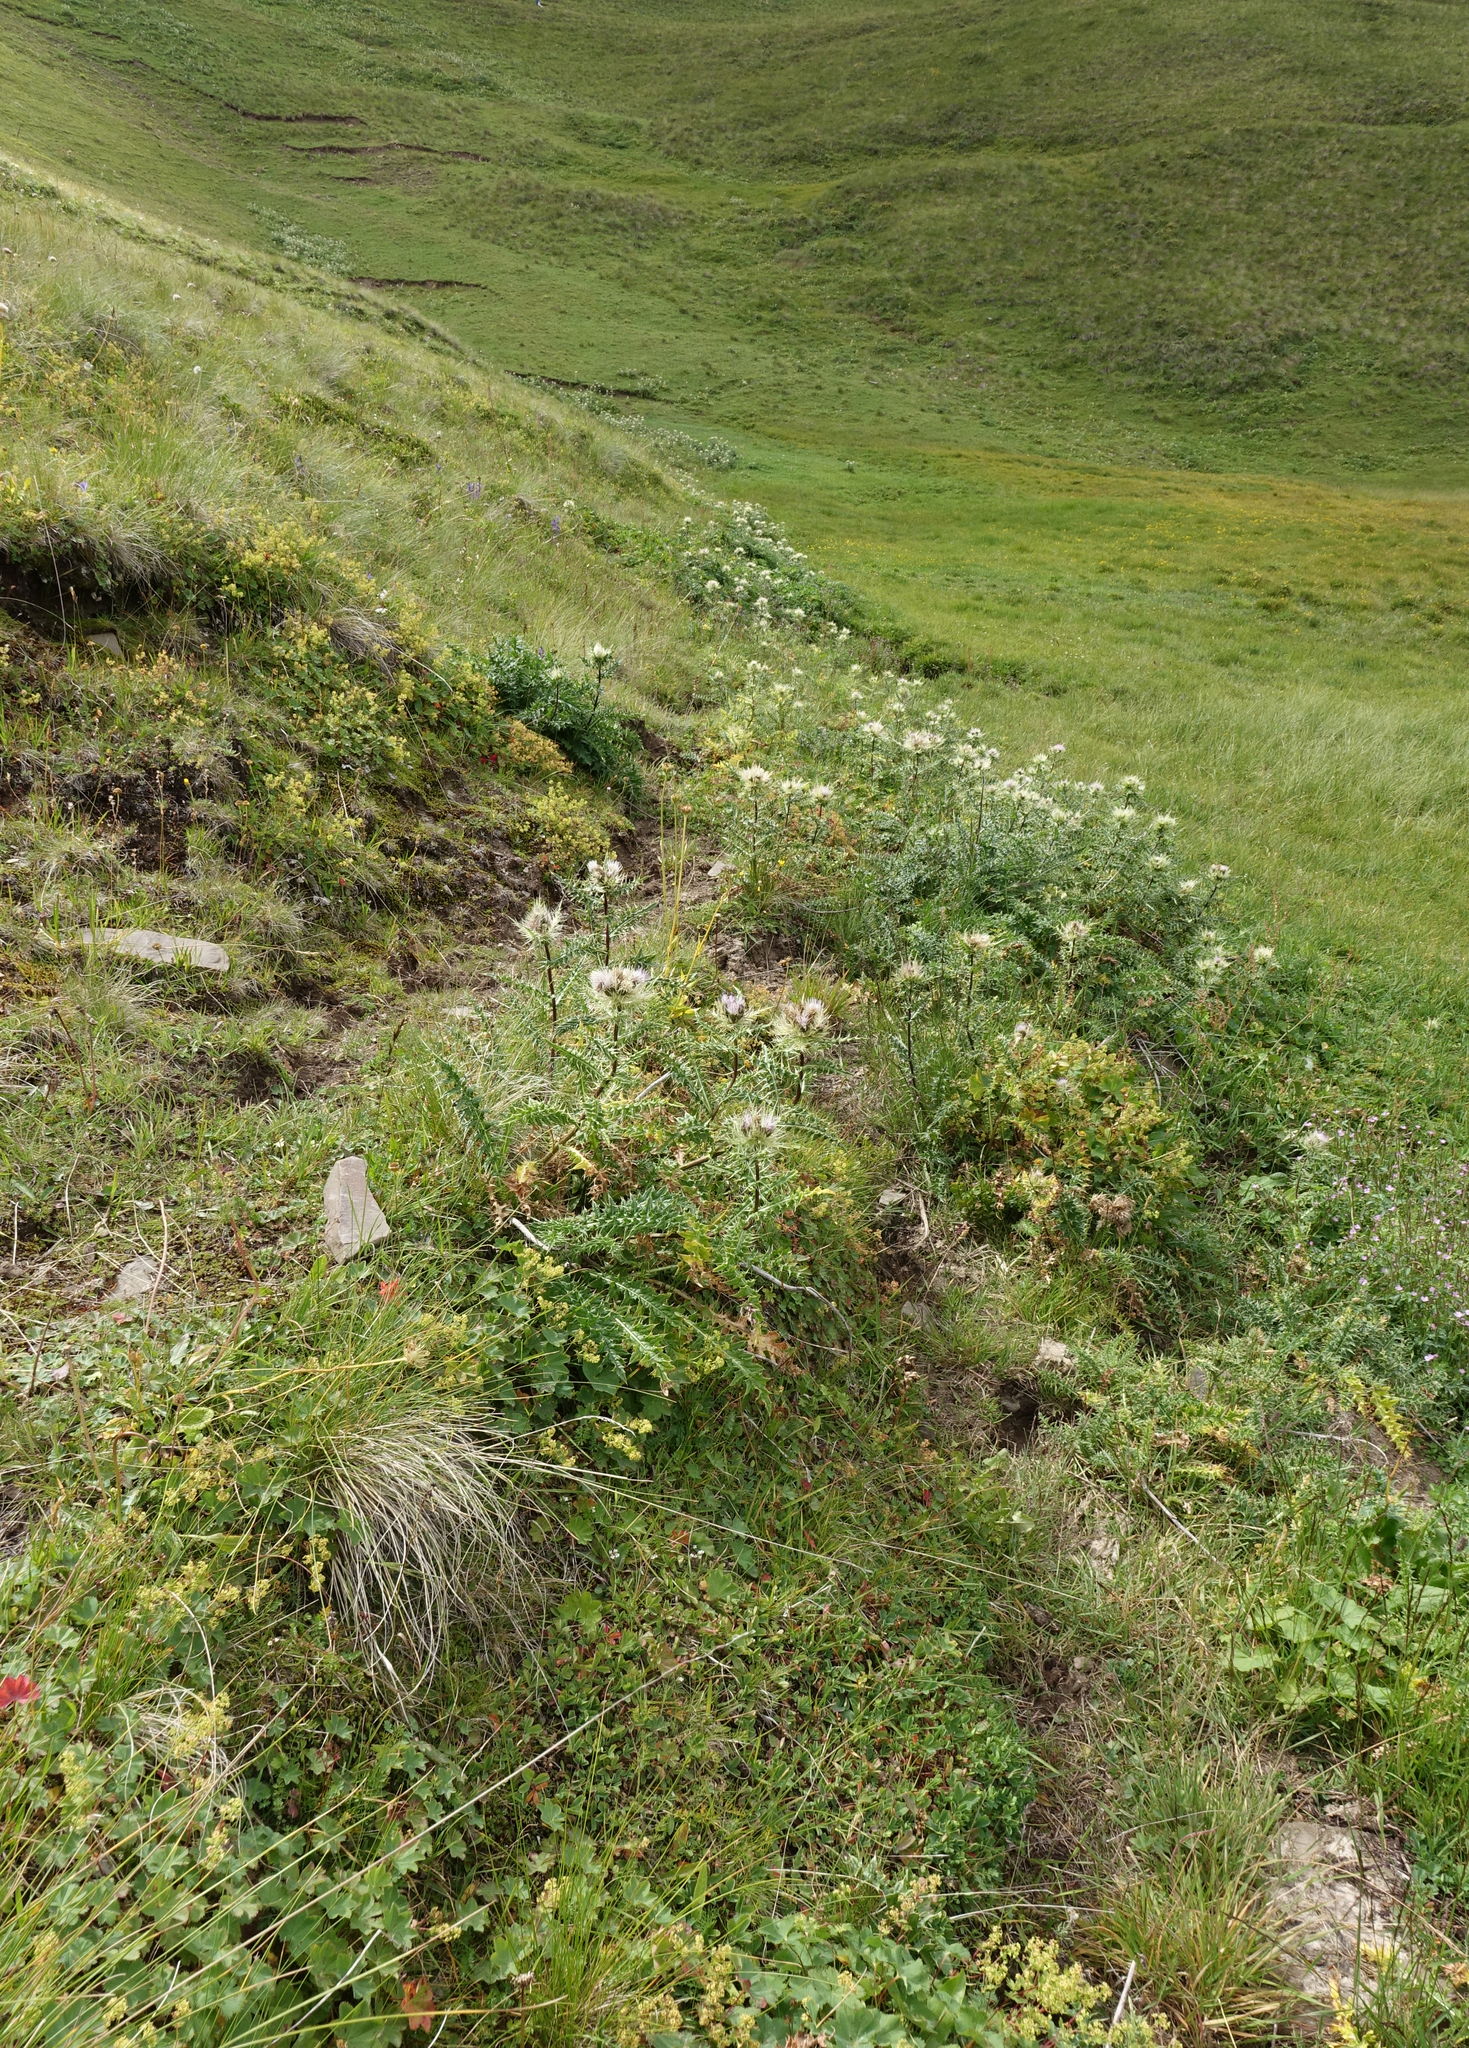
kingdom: Plantae
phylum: Tracheophyta
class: Magnoliopsida
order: Asterales
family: Asteraceae
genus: Cirsium
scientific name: Cirsium obvallatum
